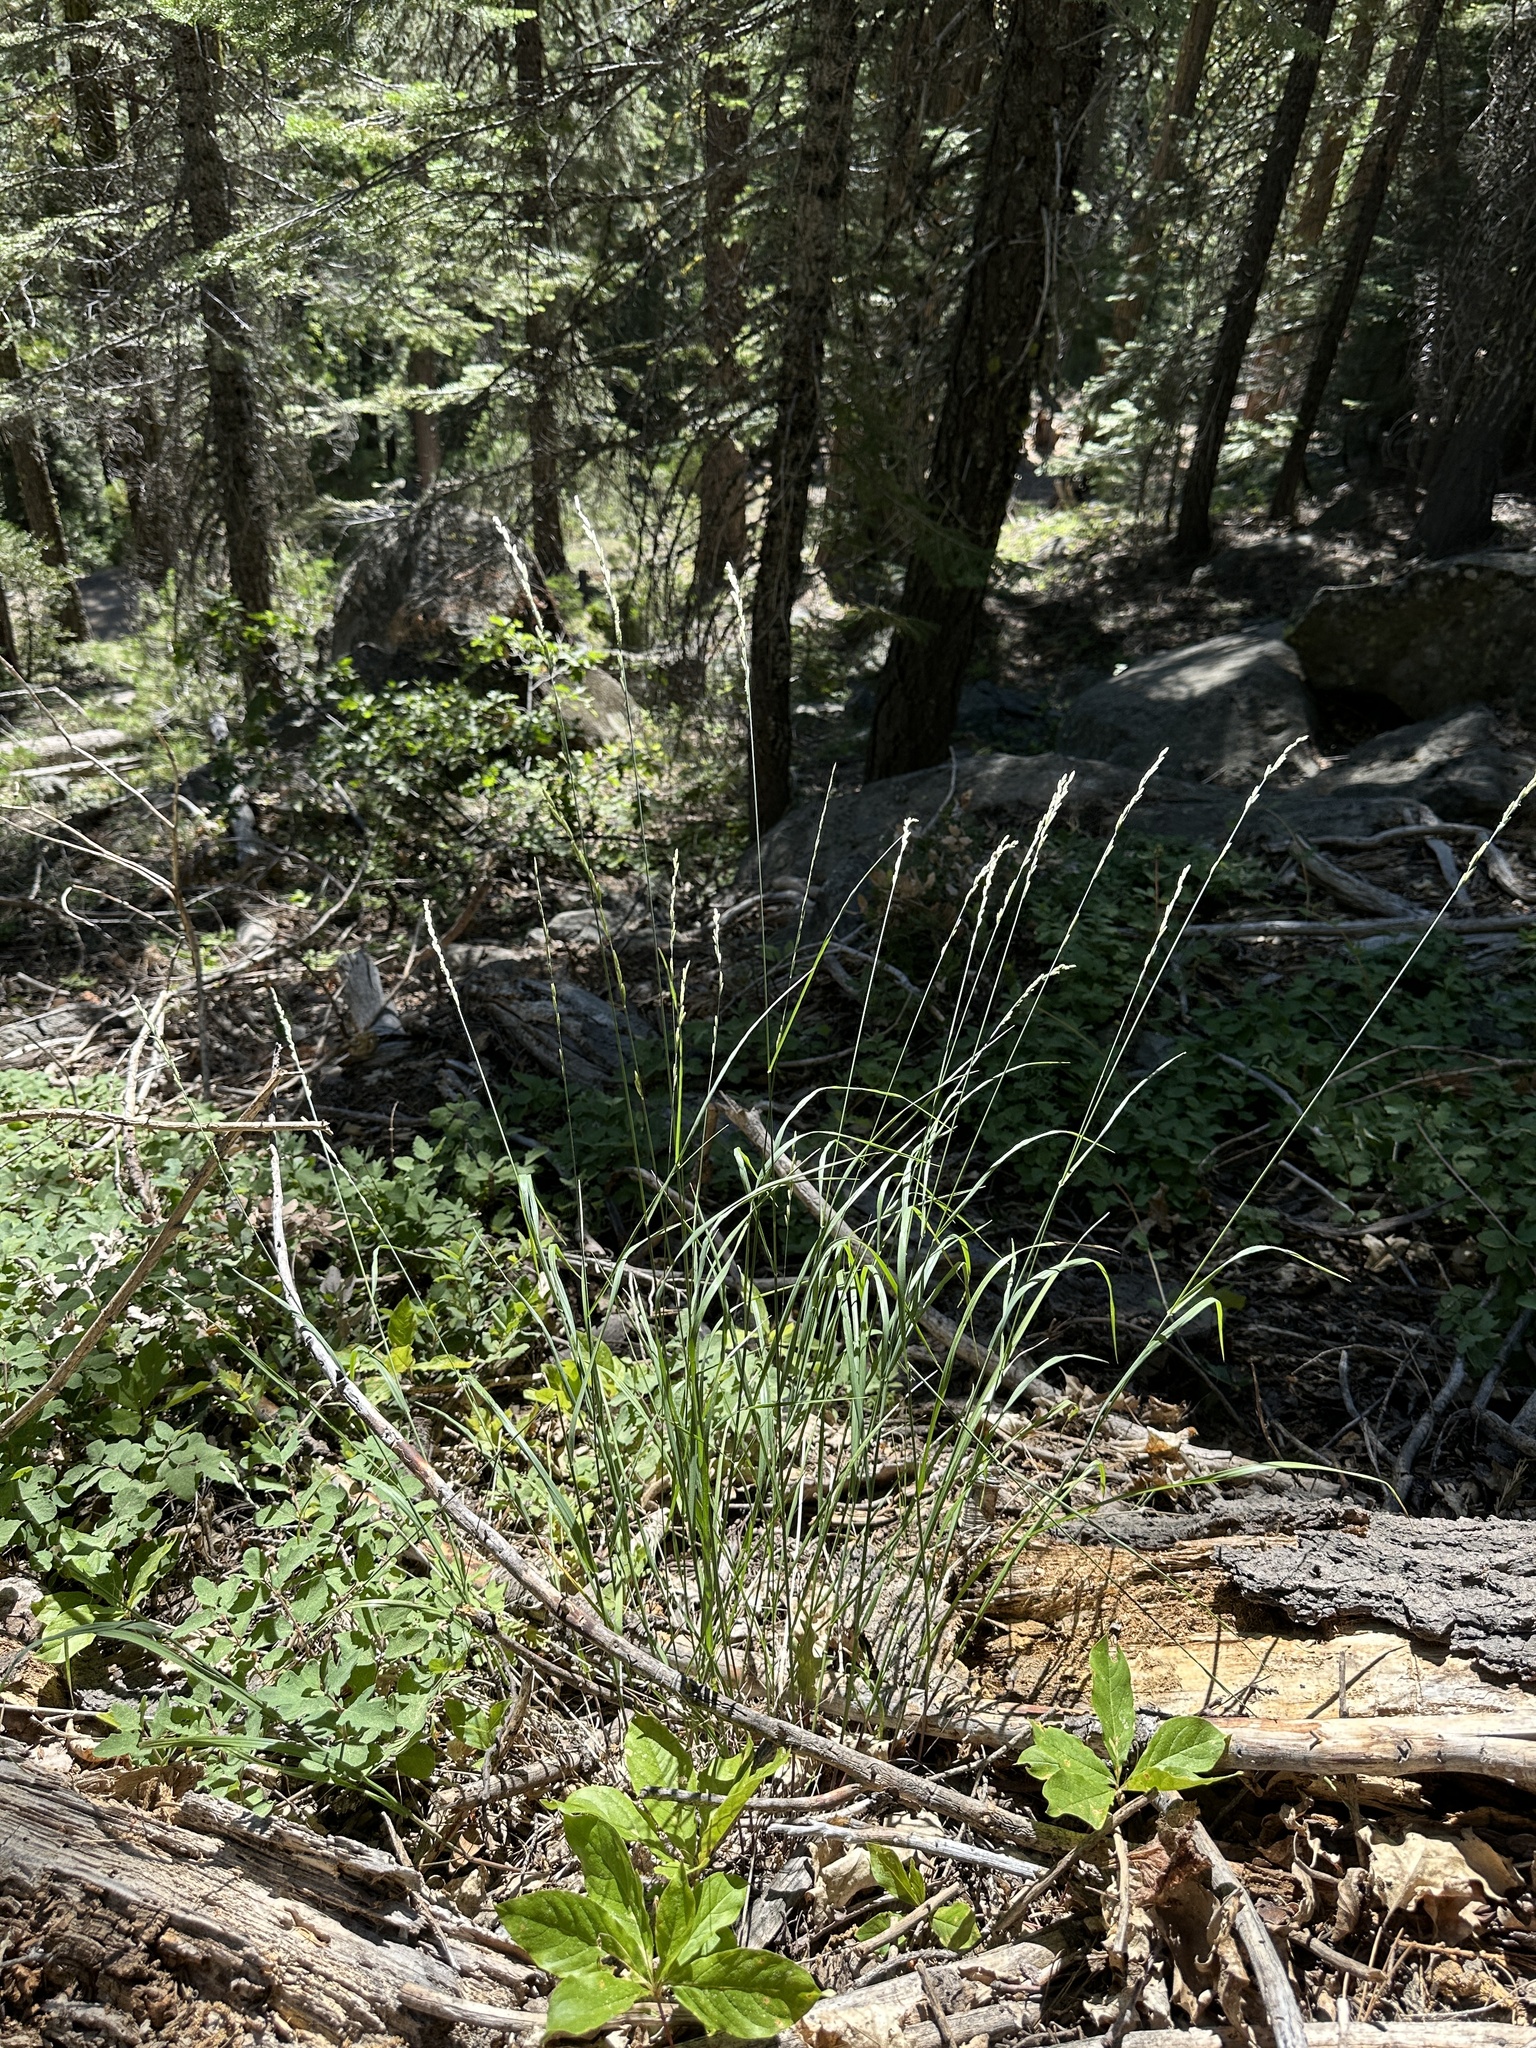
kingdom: Plantae
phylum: Tracheophyta
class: Liliopsida
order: Poales
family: Poaceae
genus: Melica
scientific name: Melica harfordii
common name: Harford's melic
